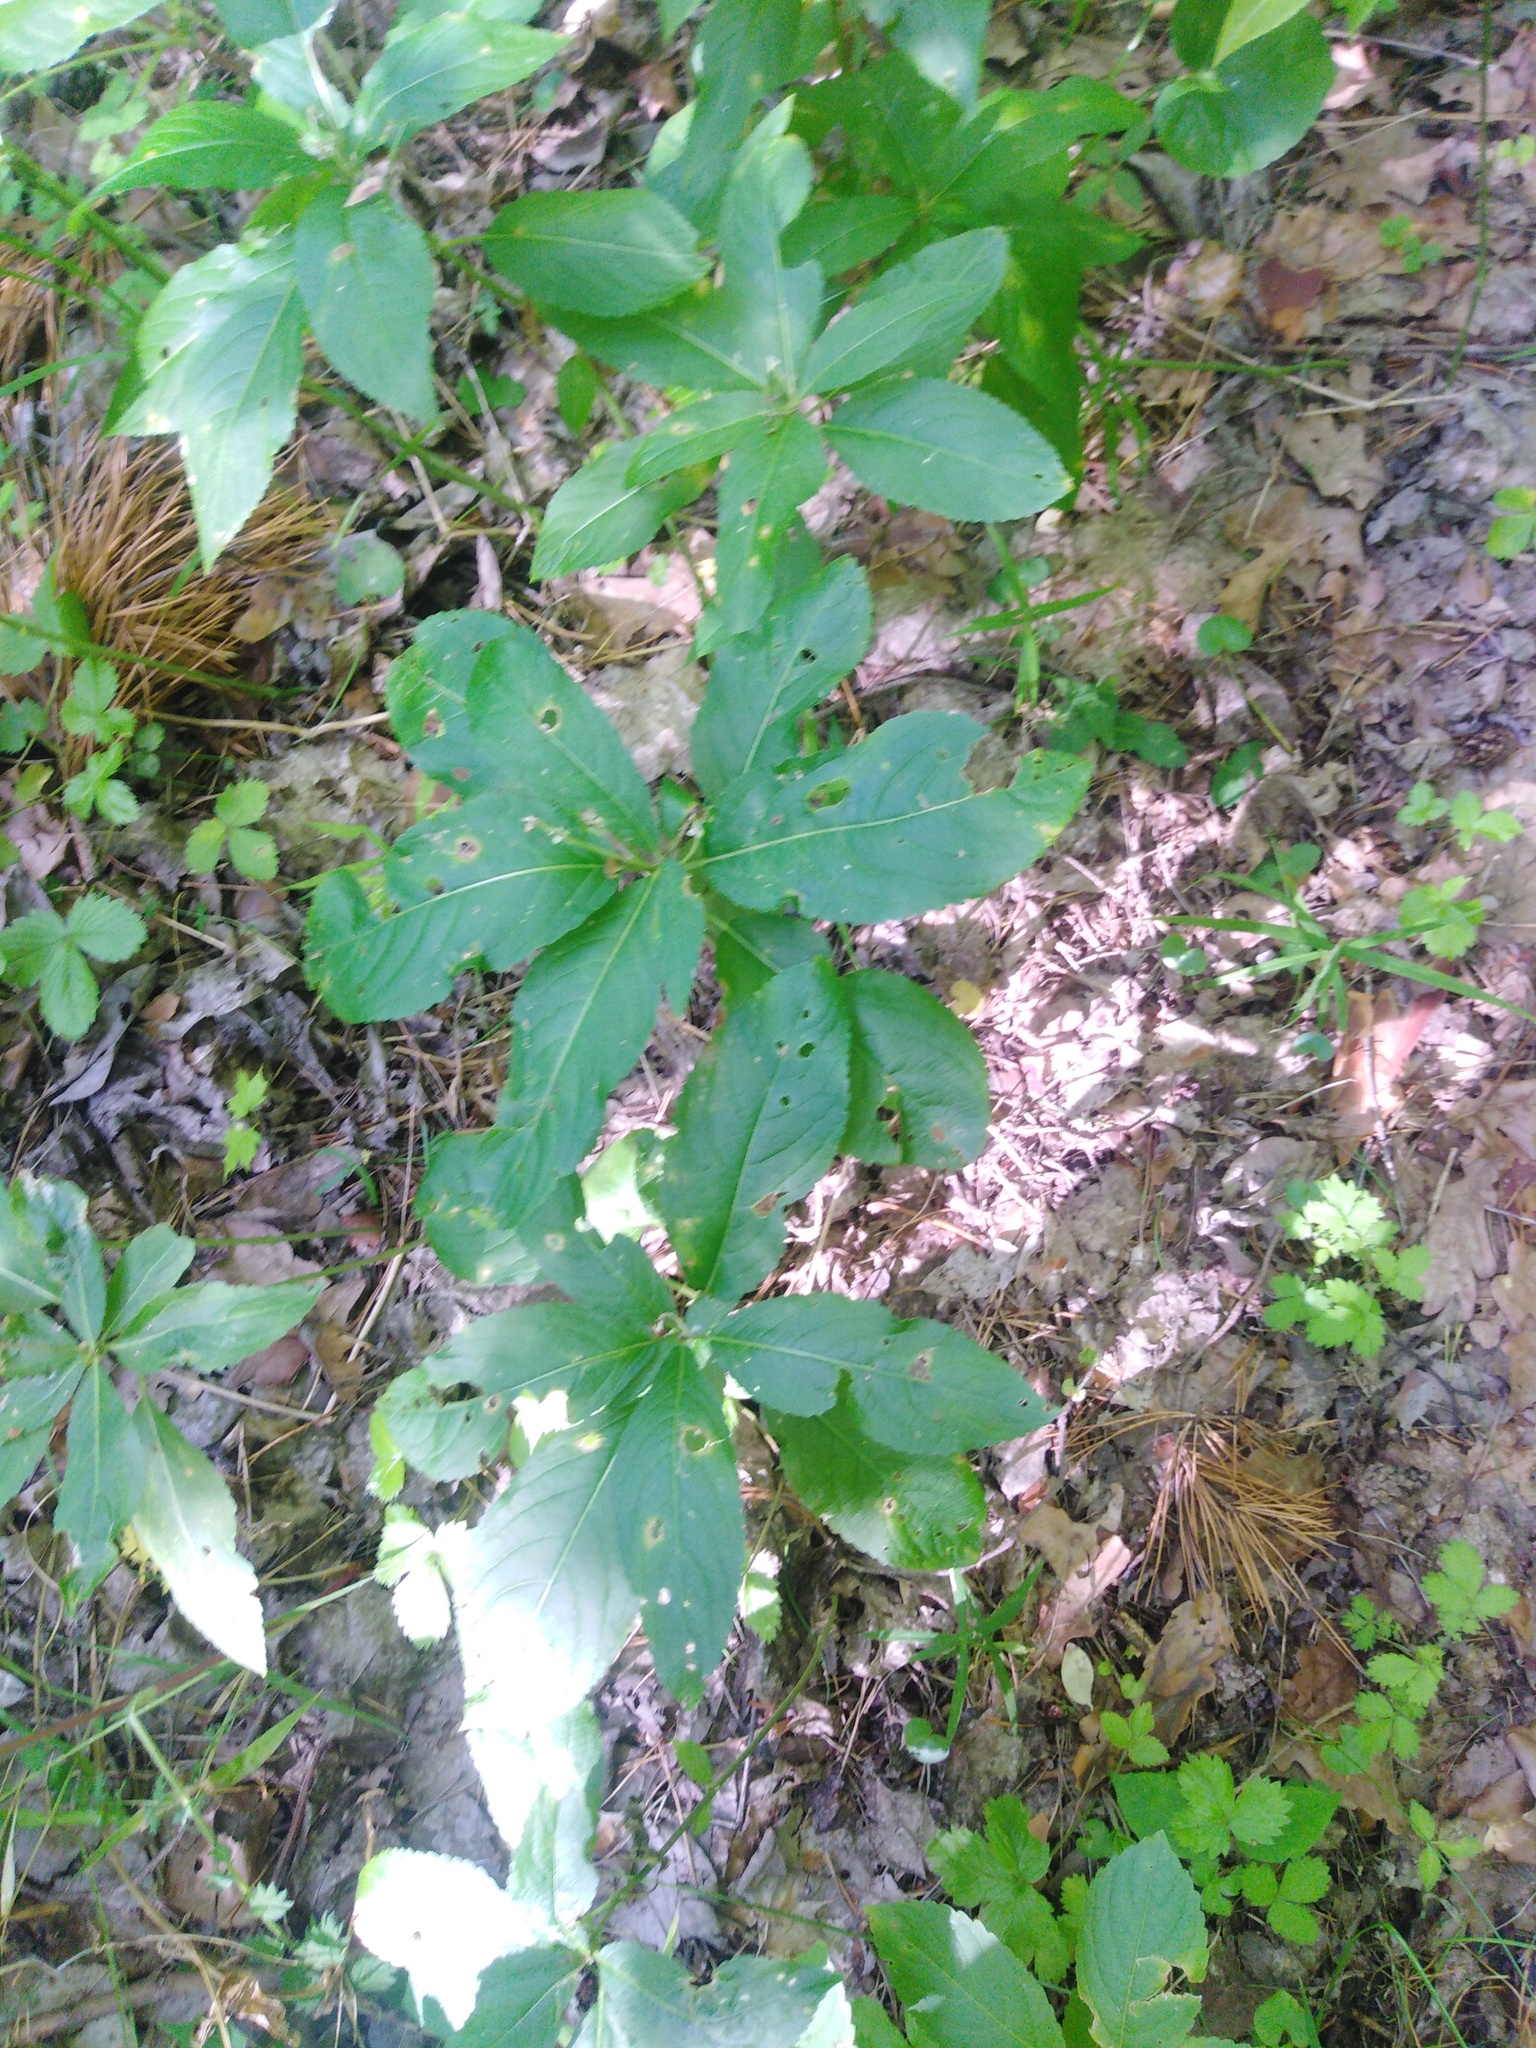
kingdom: Plantae
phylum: Tracheophyta
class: Magnoliopsida
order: Malpighiales
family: Euphorbiaceae
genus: Mercurialis
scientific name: Mercurialis perennis
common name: Dog mercury
